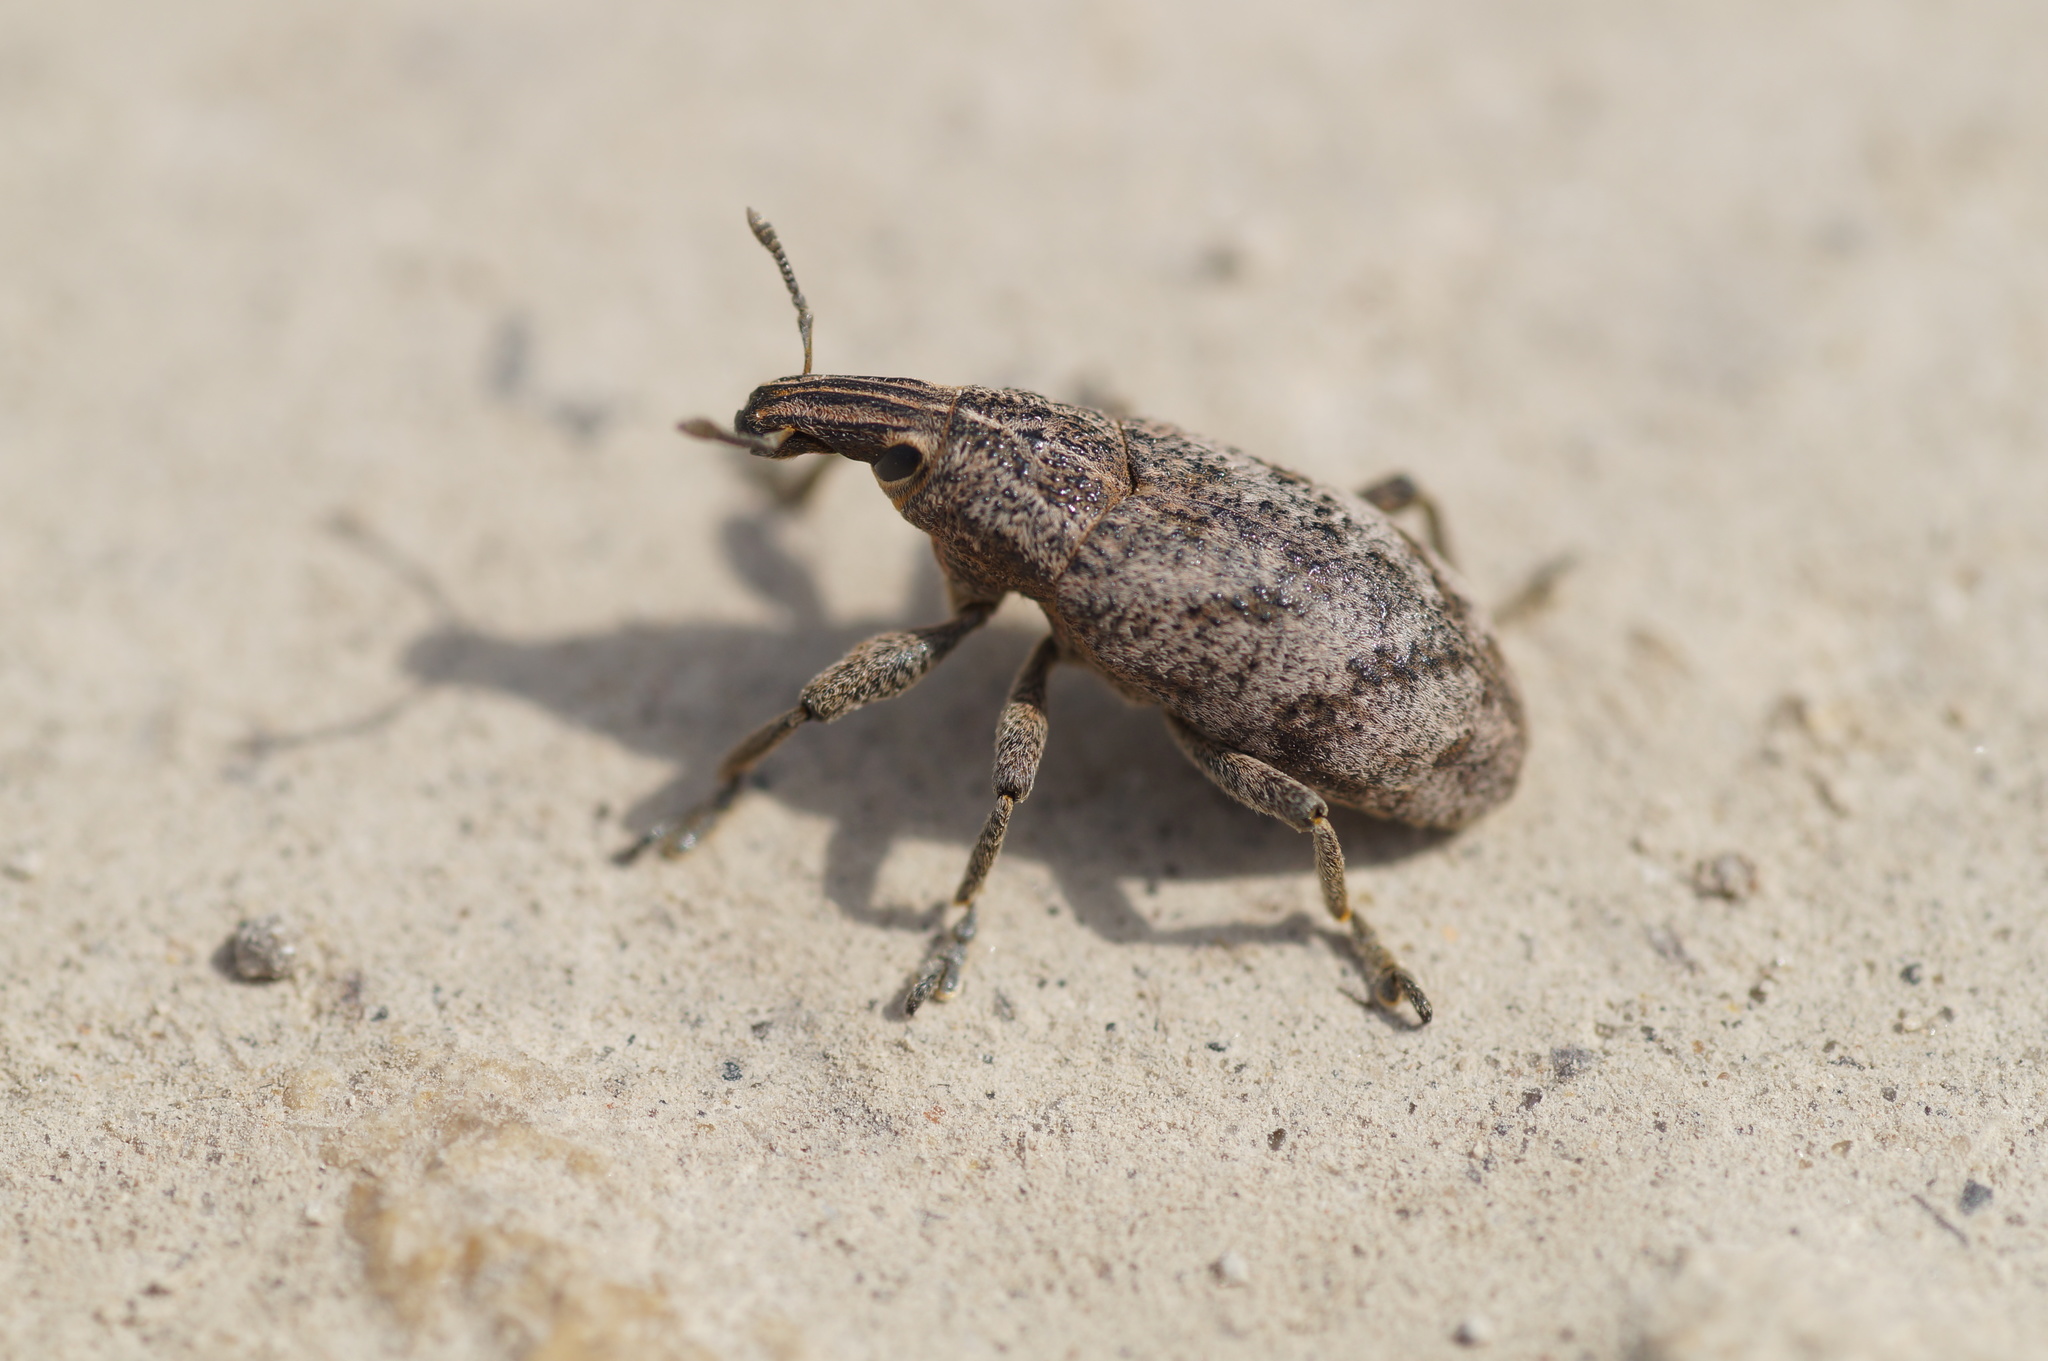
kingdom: Animalia
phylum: Arthropoda
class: Insecta
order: Coleoptera
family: Curculionidae
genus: Cleonis
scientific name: Cleonis pigra
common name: Large thistle weevil
